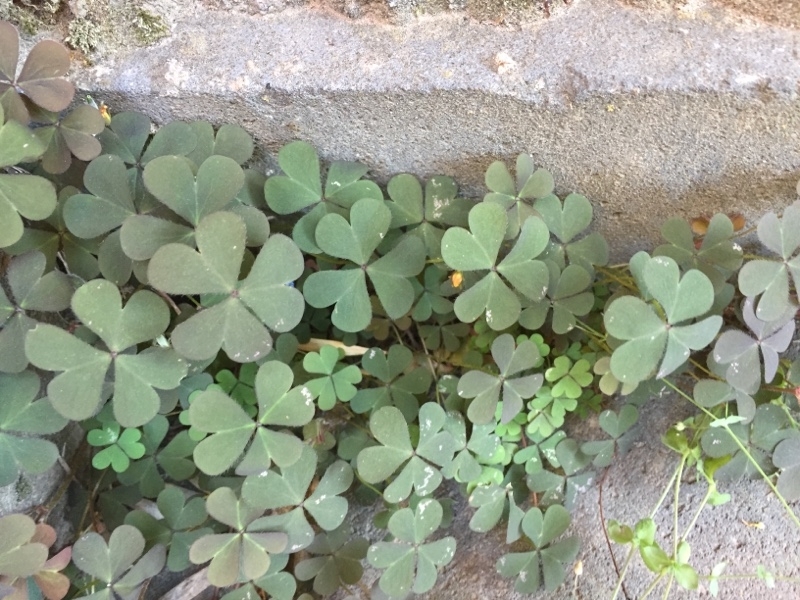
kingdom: Plantae
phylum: Tracheophyta
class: Magnoliopsida
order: Oxalidales
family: Oxalidaceae
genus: Oxalis
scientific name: Oxalis corniculata
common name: Procumbent yellow-sorrel
